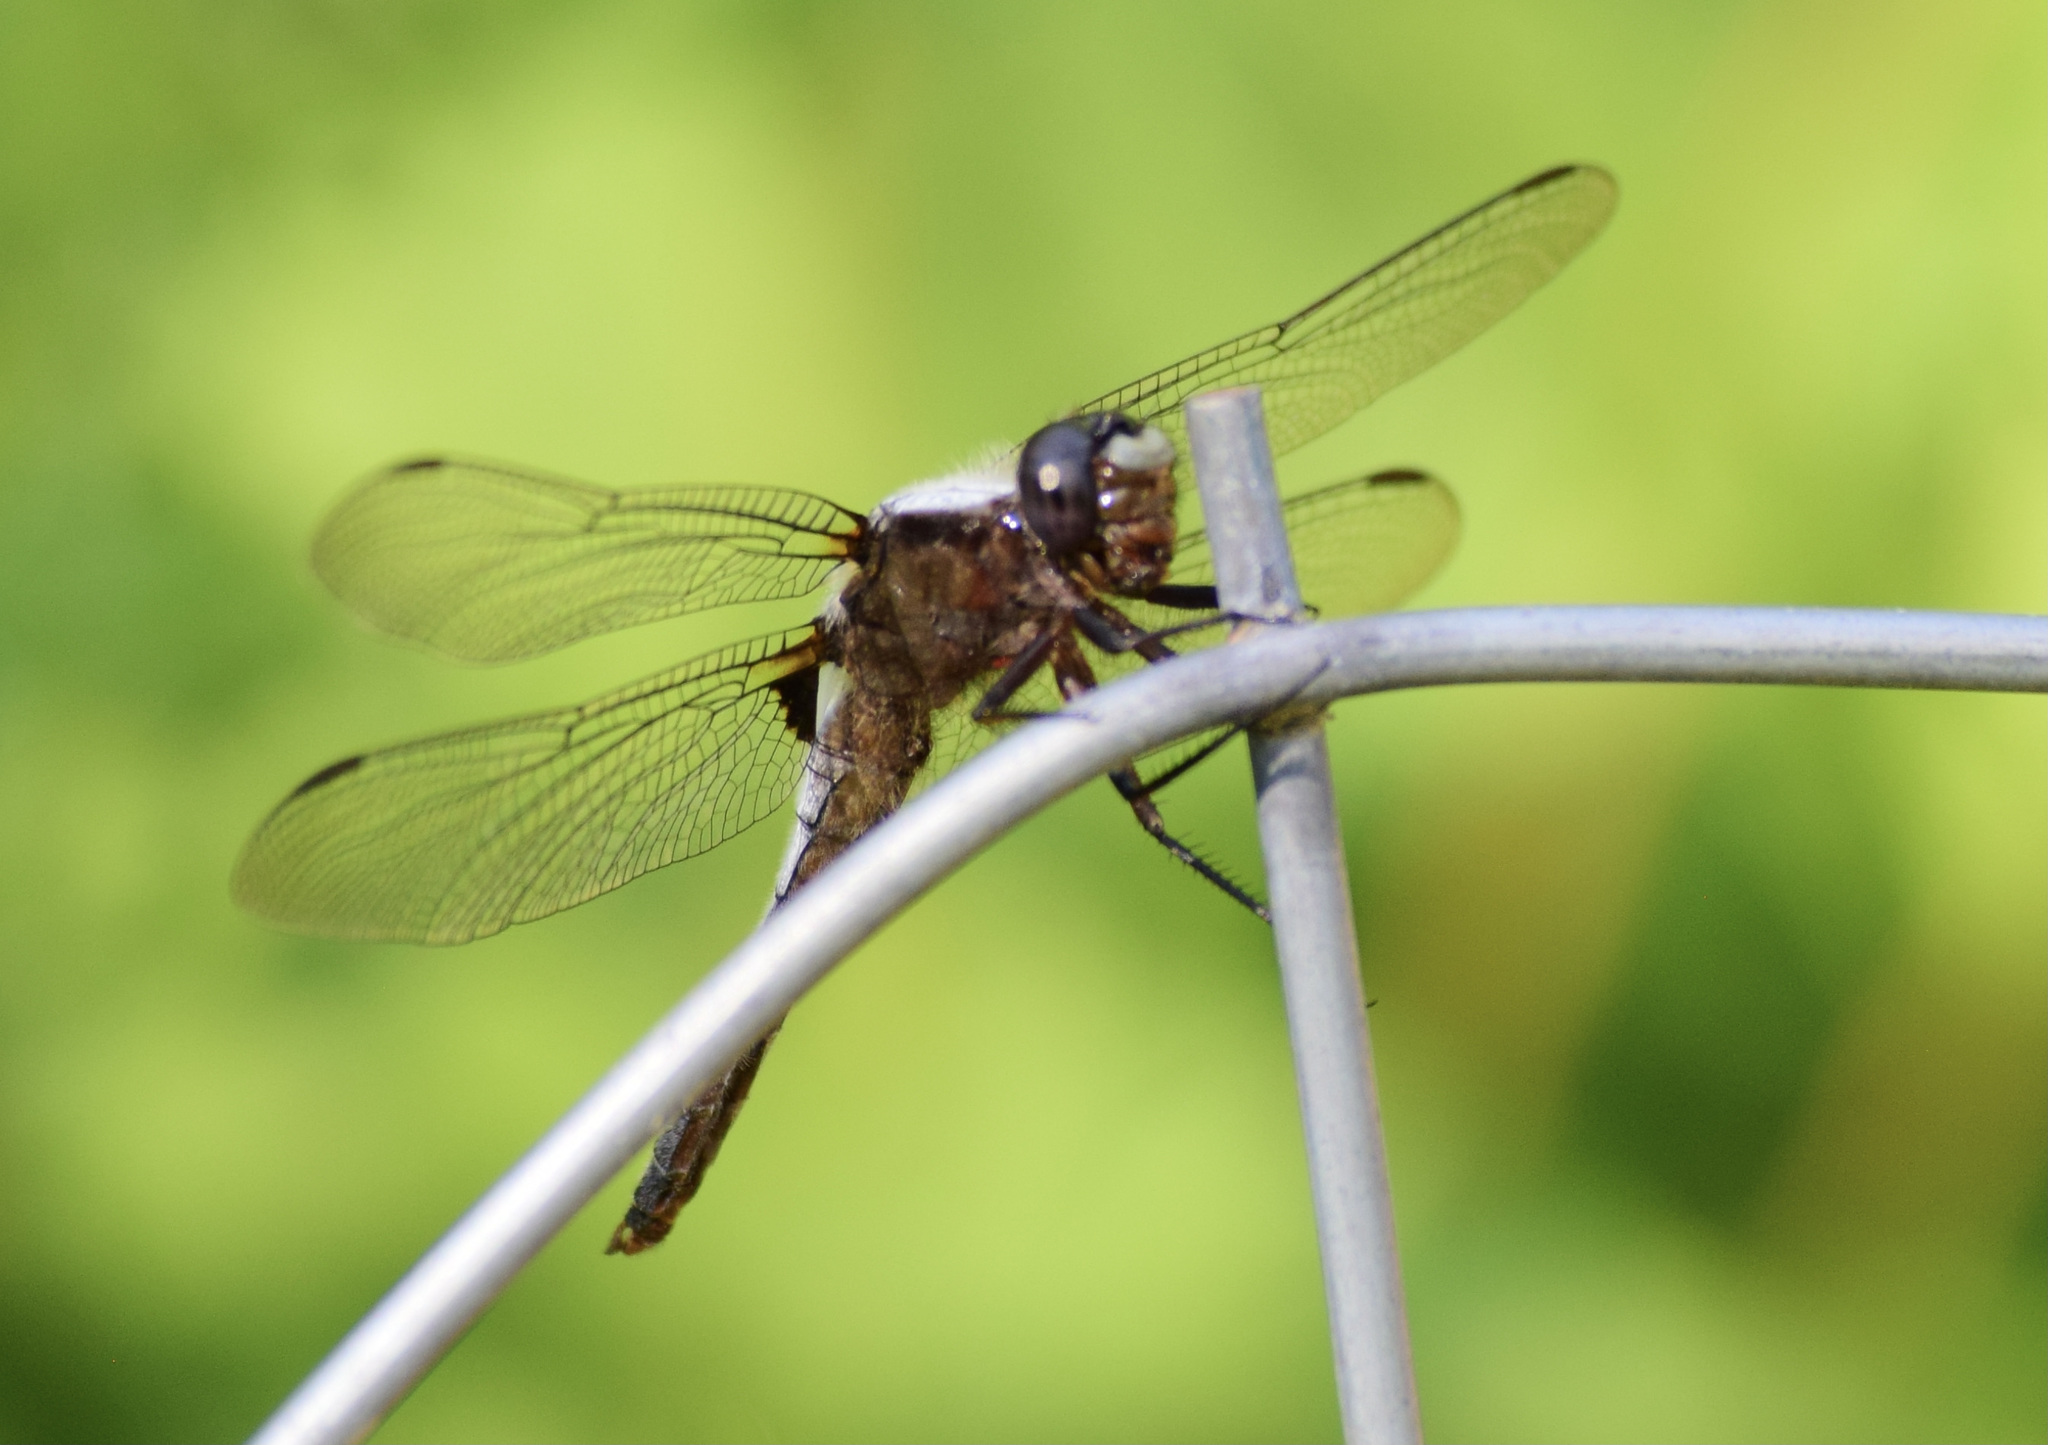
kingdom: Animalia
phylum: Arthropoda
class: Insecta
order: Odonata
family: Libellulidae
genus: Ladona
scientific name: Ladona julia
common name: Chalk-fronted corporal
